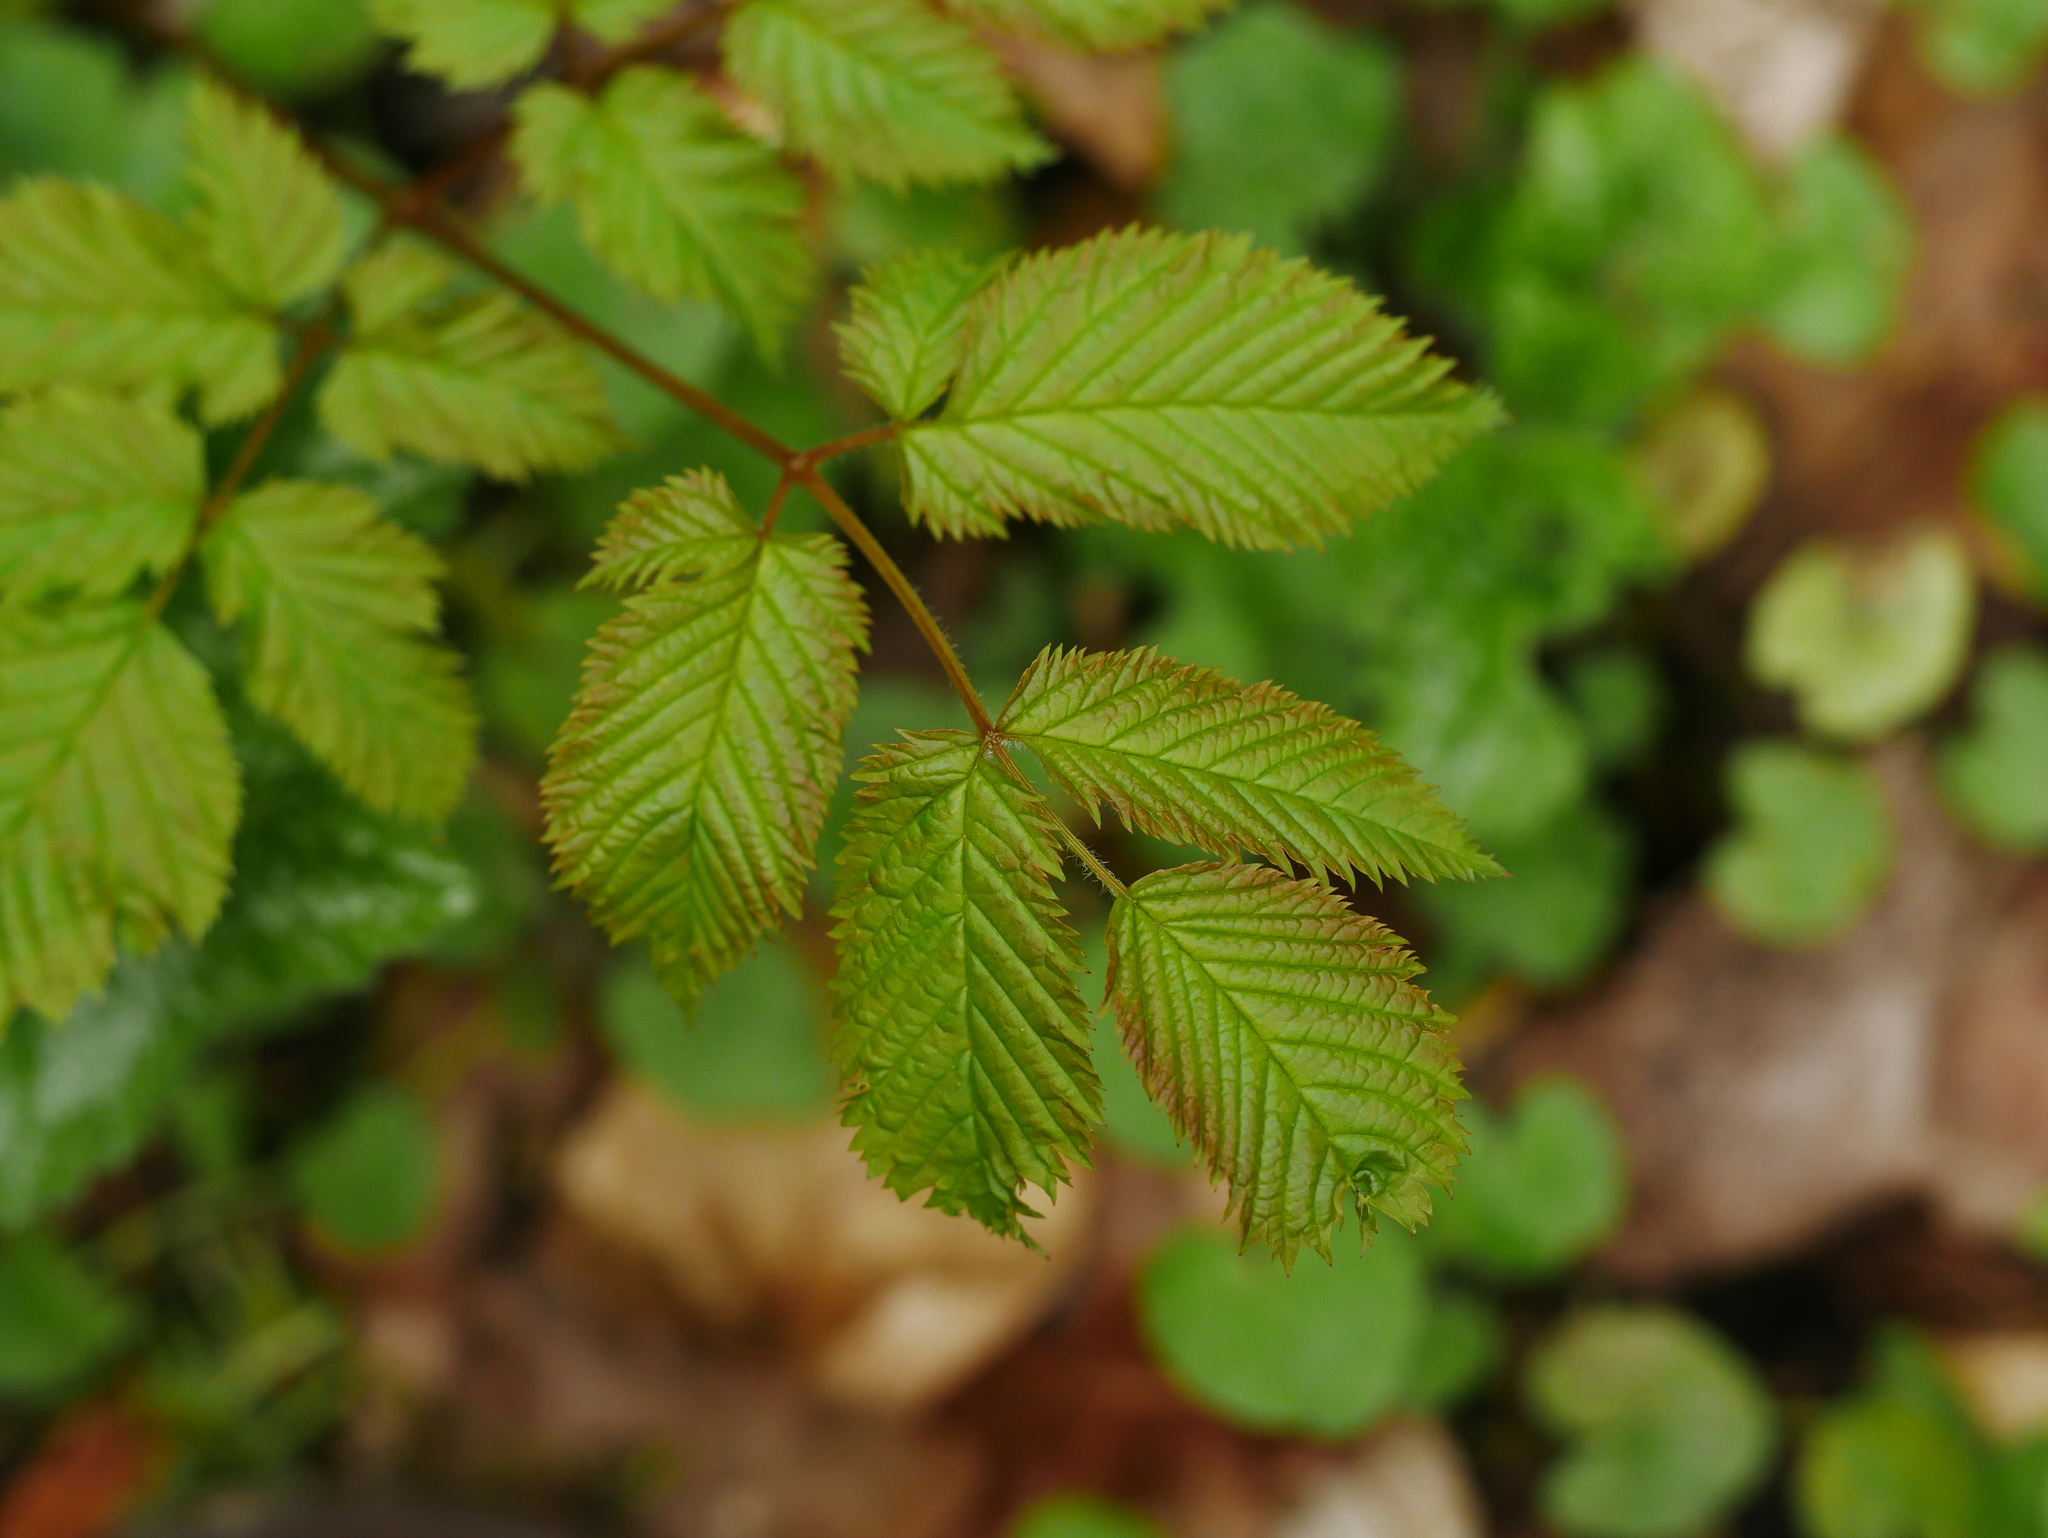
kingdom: Plantae
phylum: Tracheophyta
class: Magnoliopsida
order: Rosales
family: Rosaceae
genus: Aruncus
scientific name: Aruncus dioicus
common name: Buck's-beard
